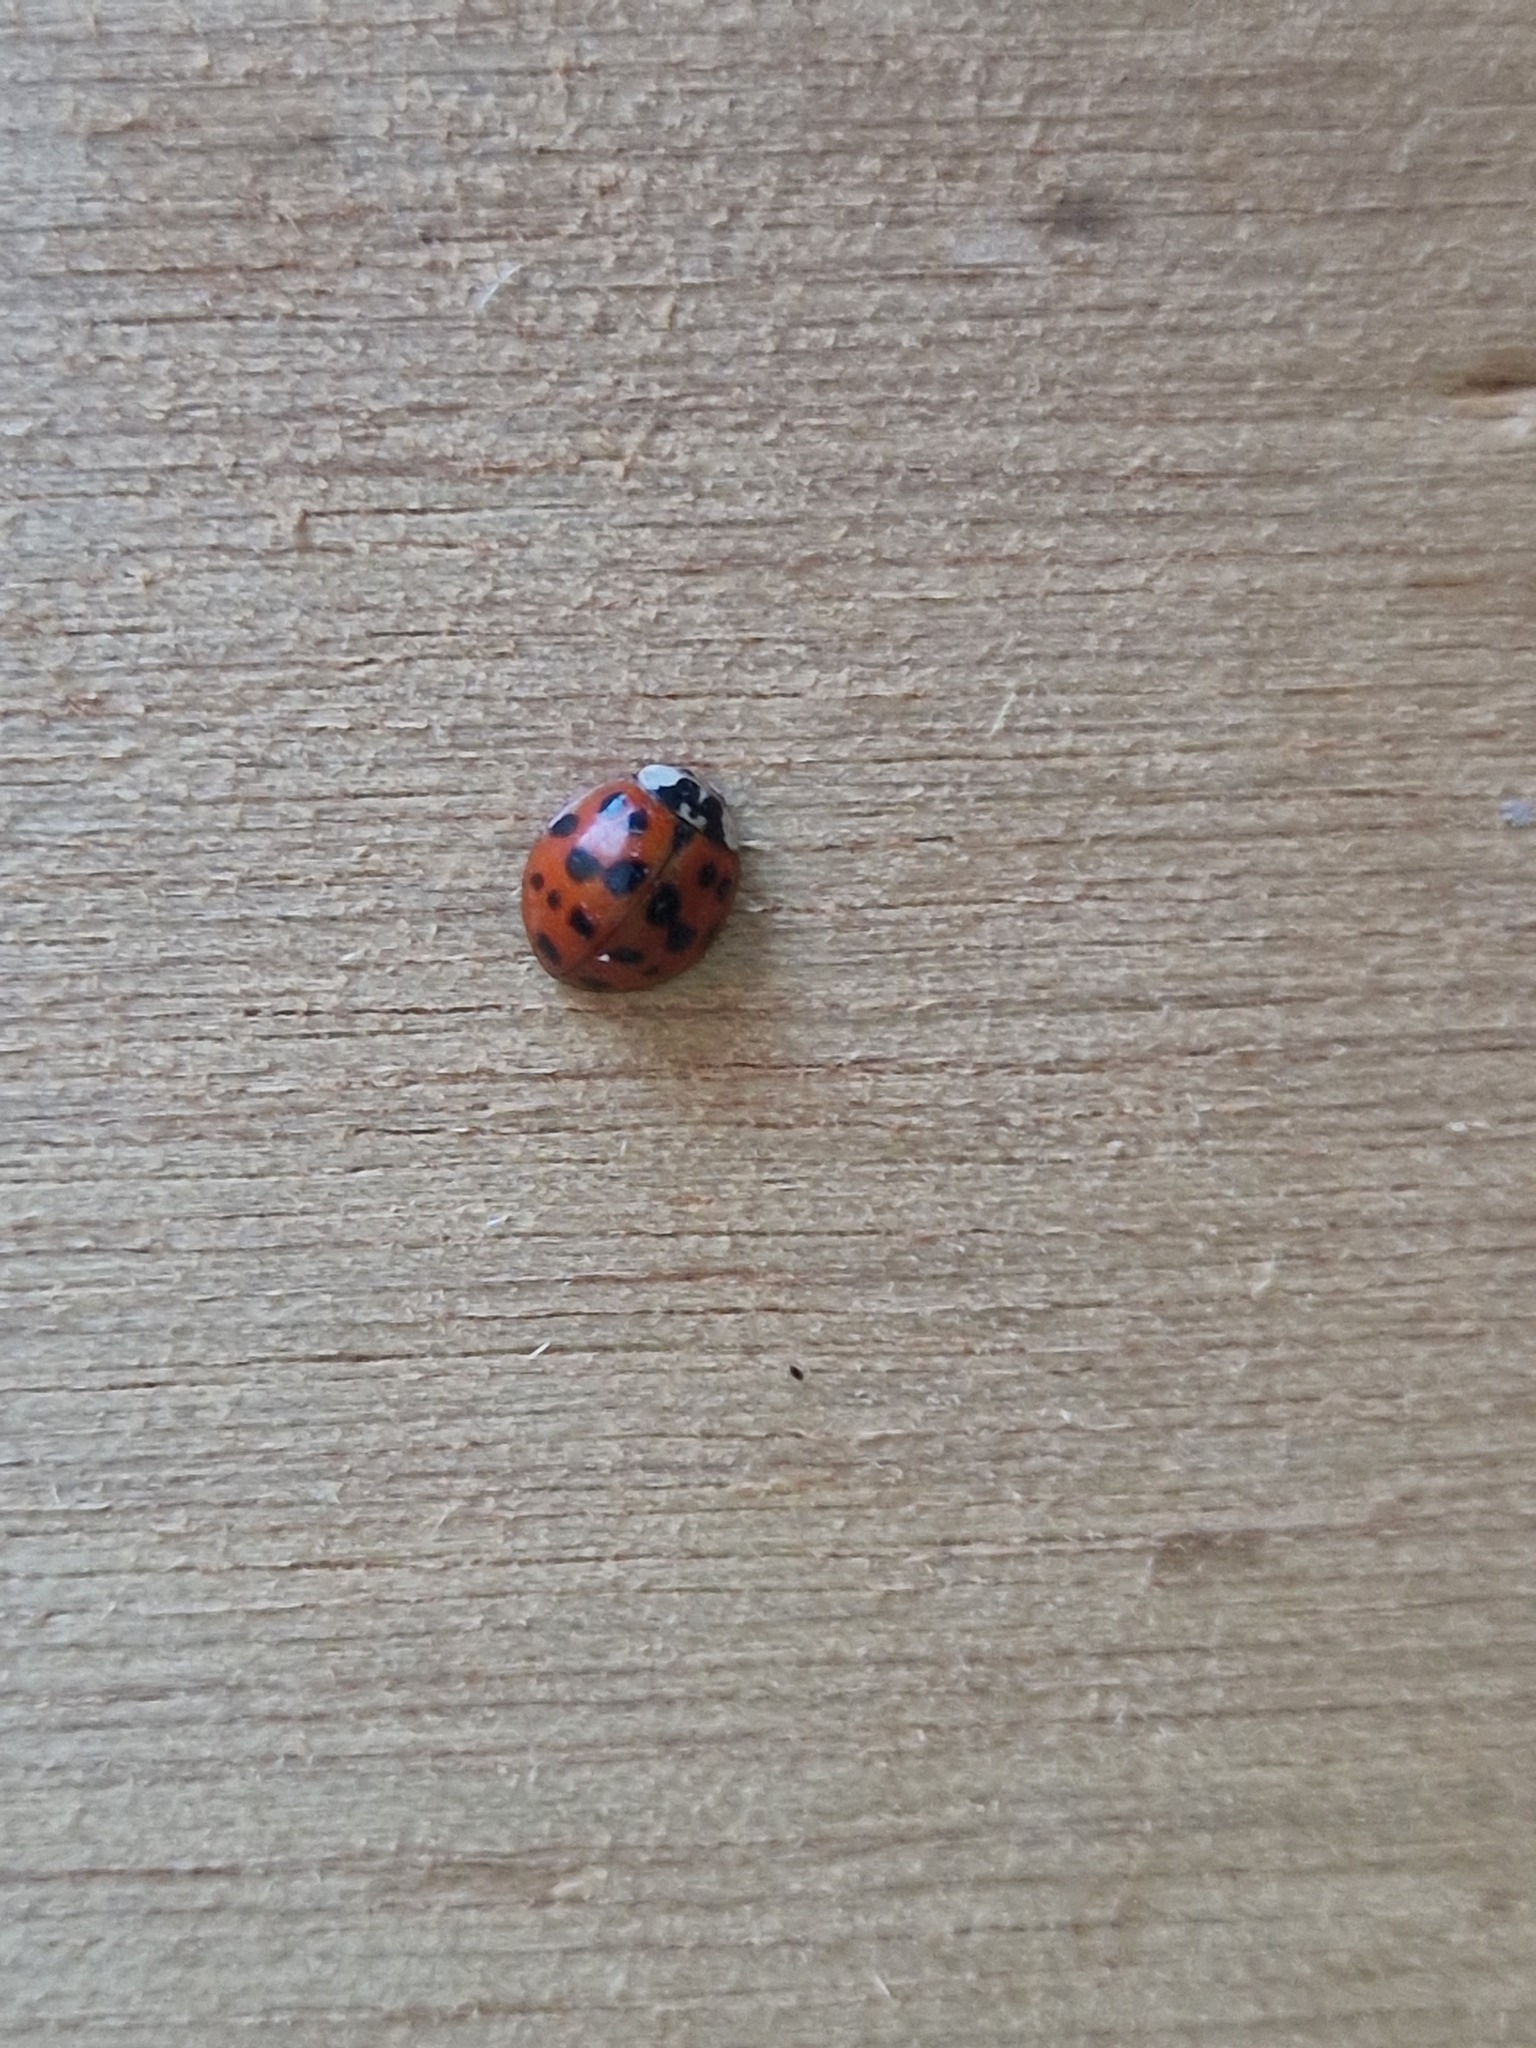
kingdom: Animalia
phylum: Arthropoda
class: Insecta
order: Coleoptera
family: Coccinellidae
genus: Harmonia
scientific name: Harmonia axyridis
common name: Harlequin ladybird
